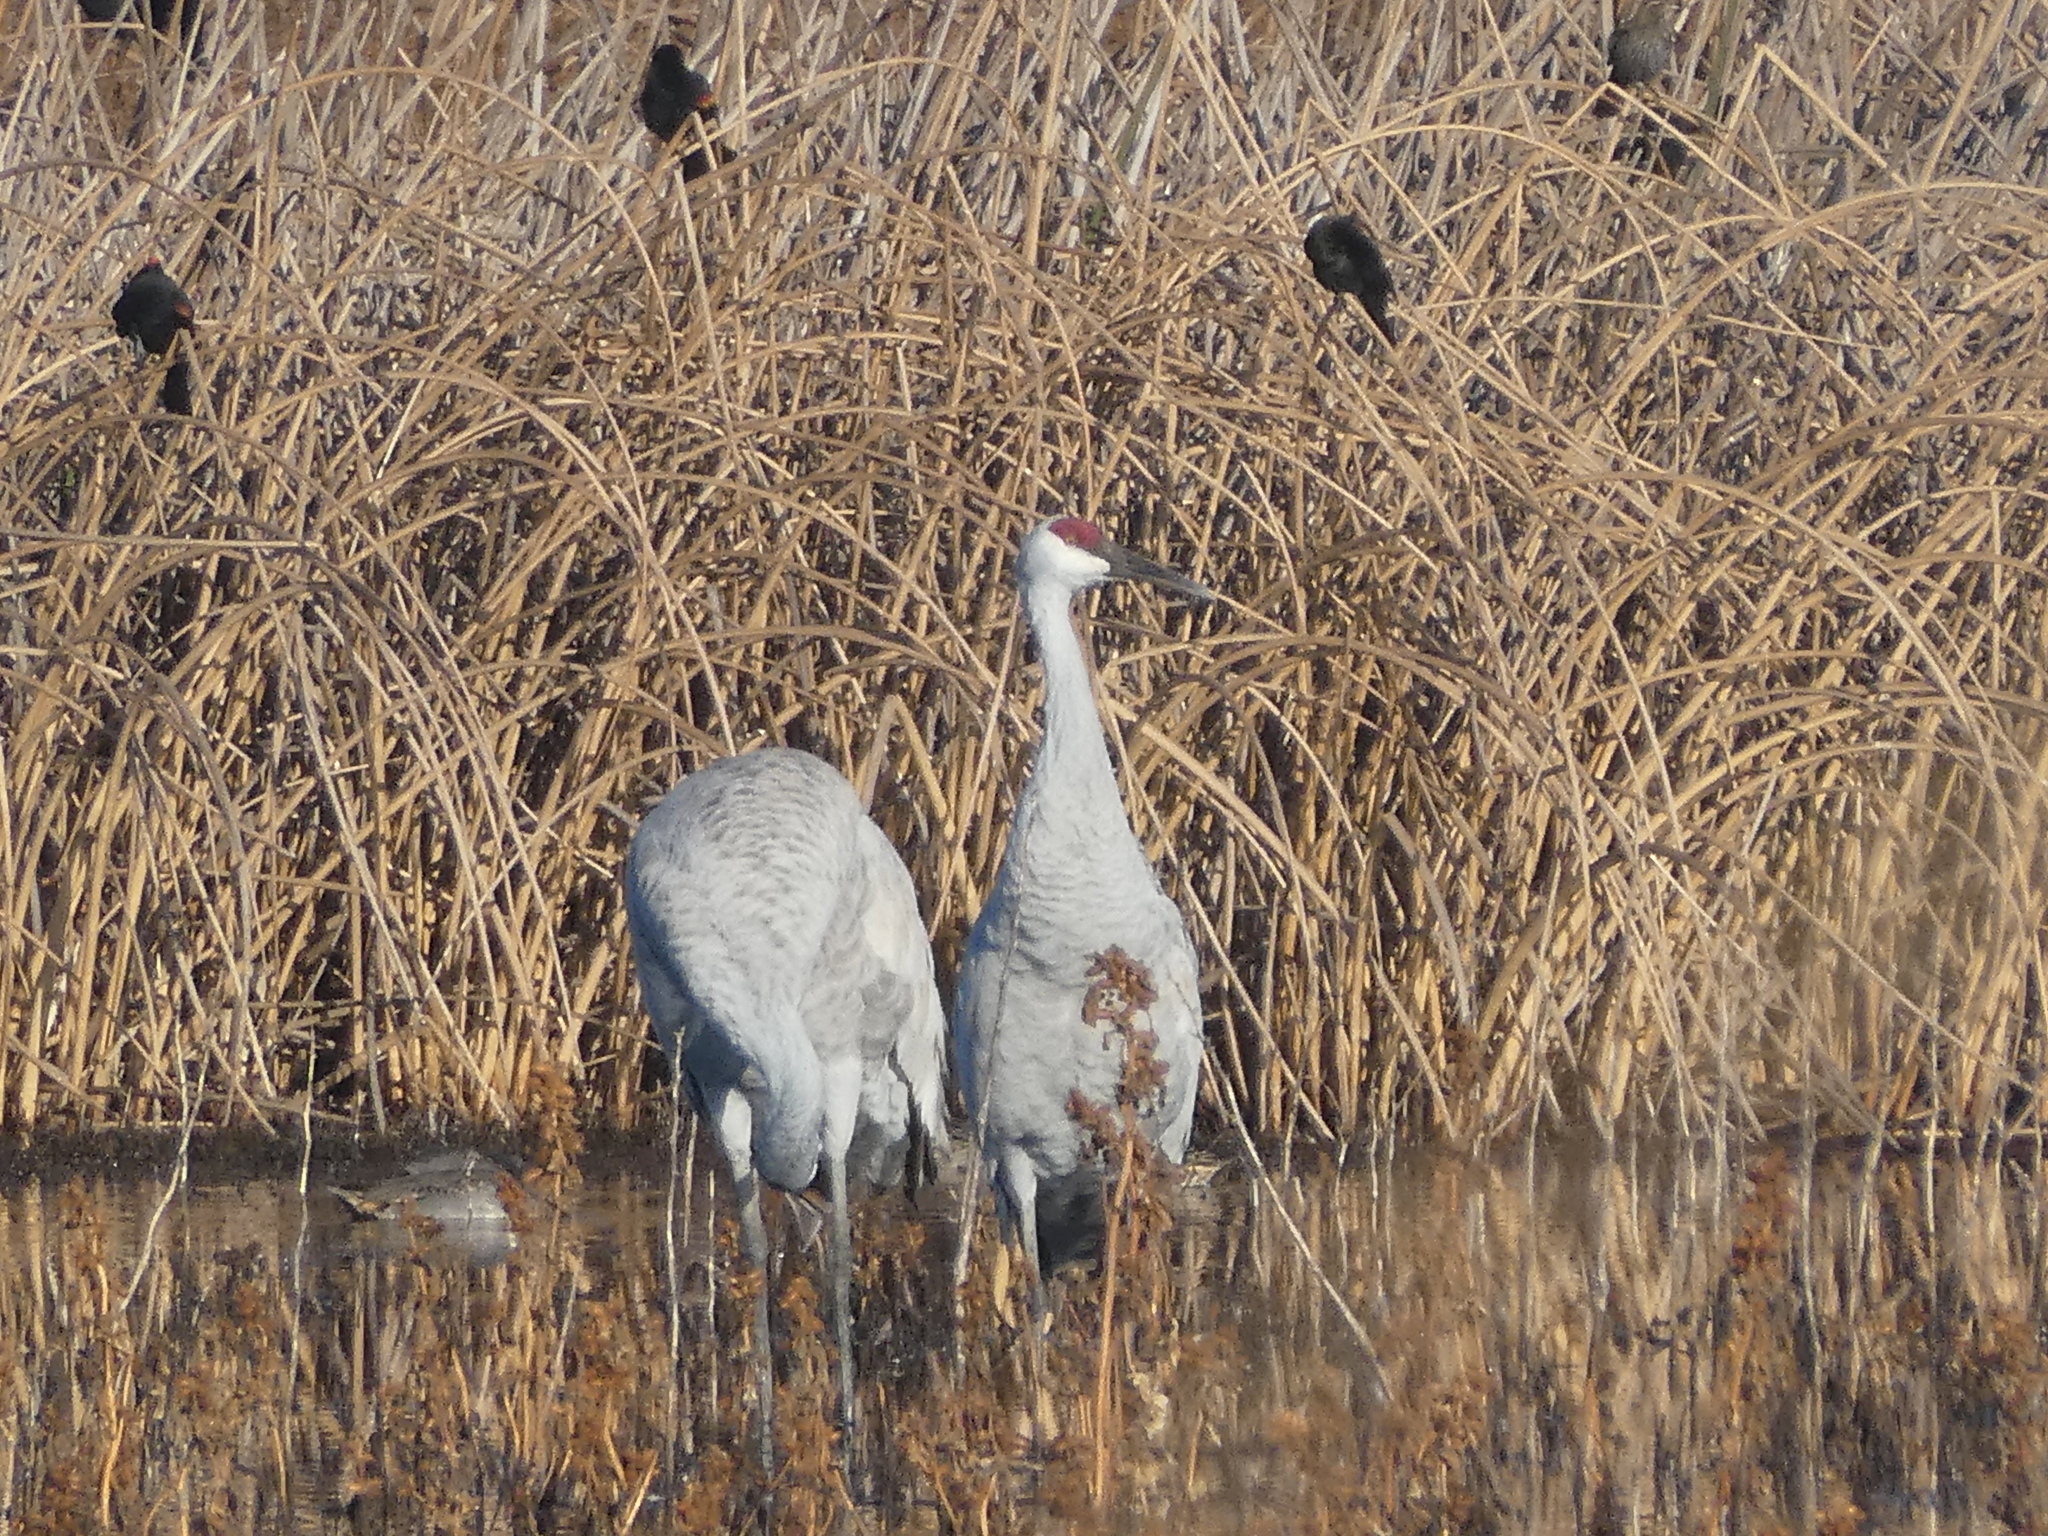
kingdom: Animalia
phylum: Chordata
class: Aves
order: Gruiformes
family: Gruidae
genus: Grus
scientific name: Grus canadensis
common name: Sandhill crane
